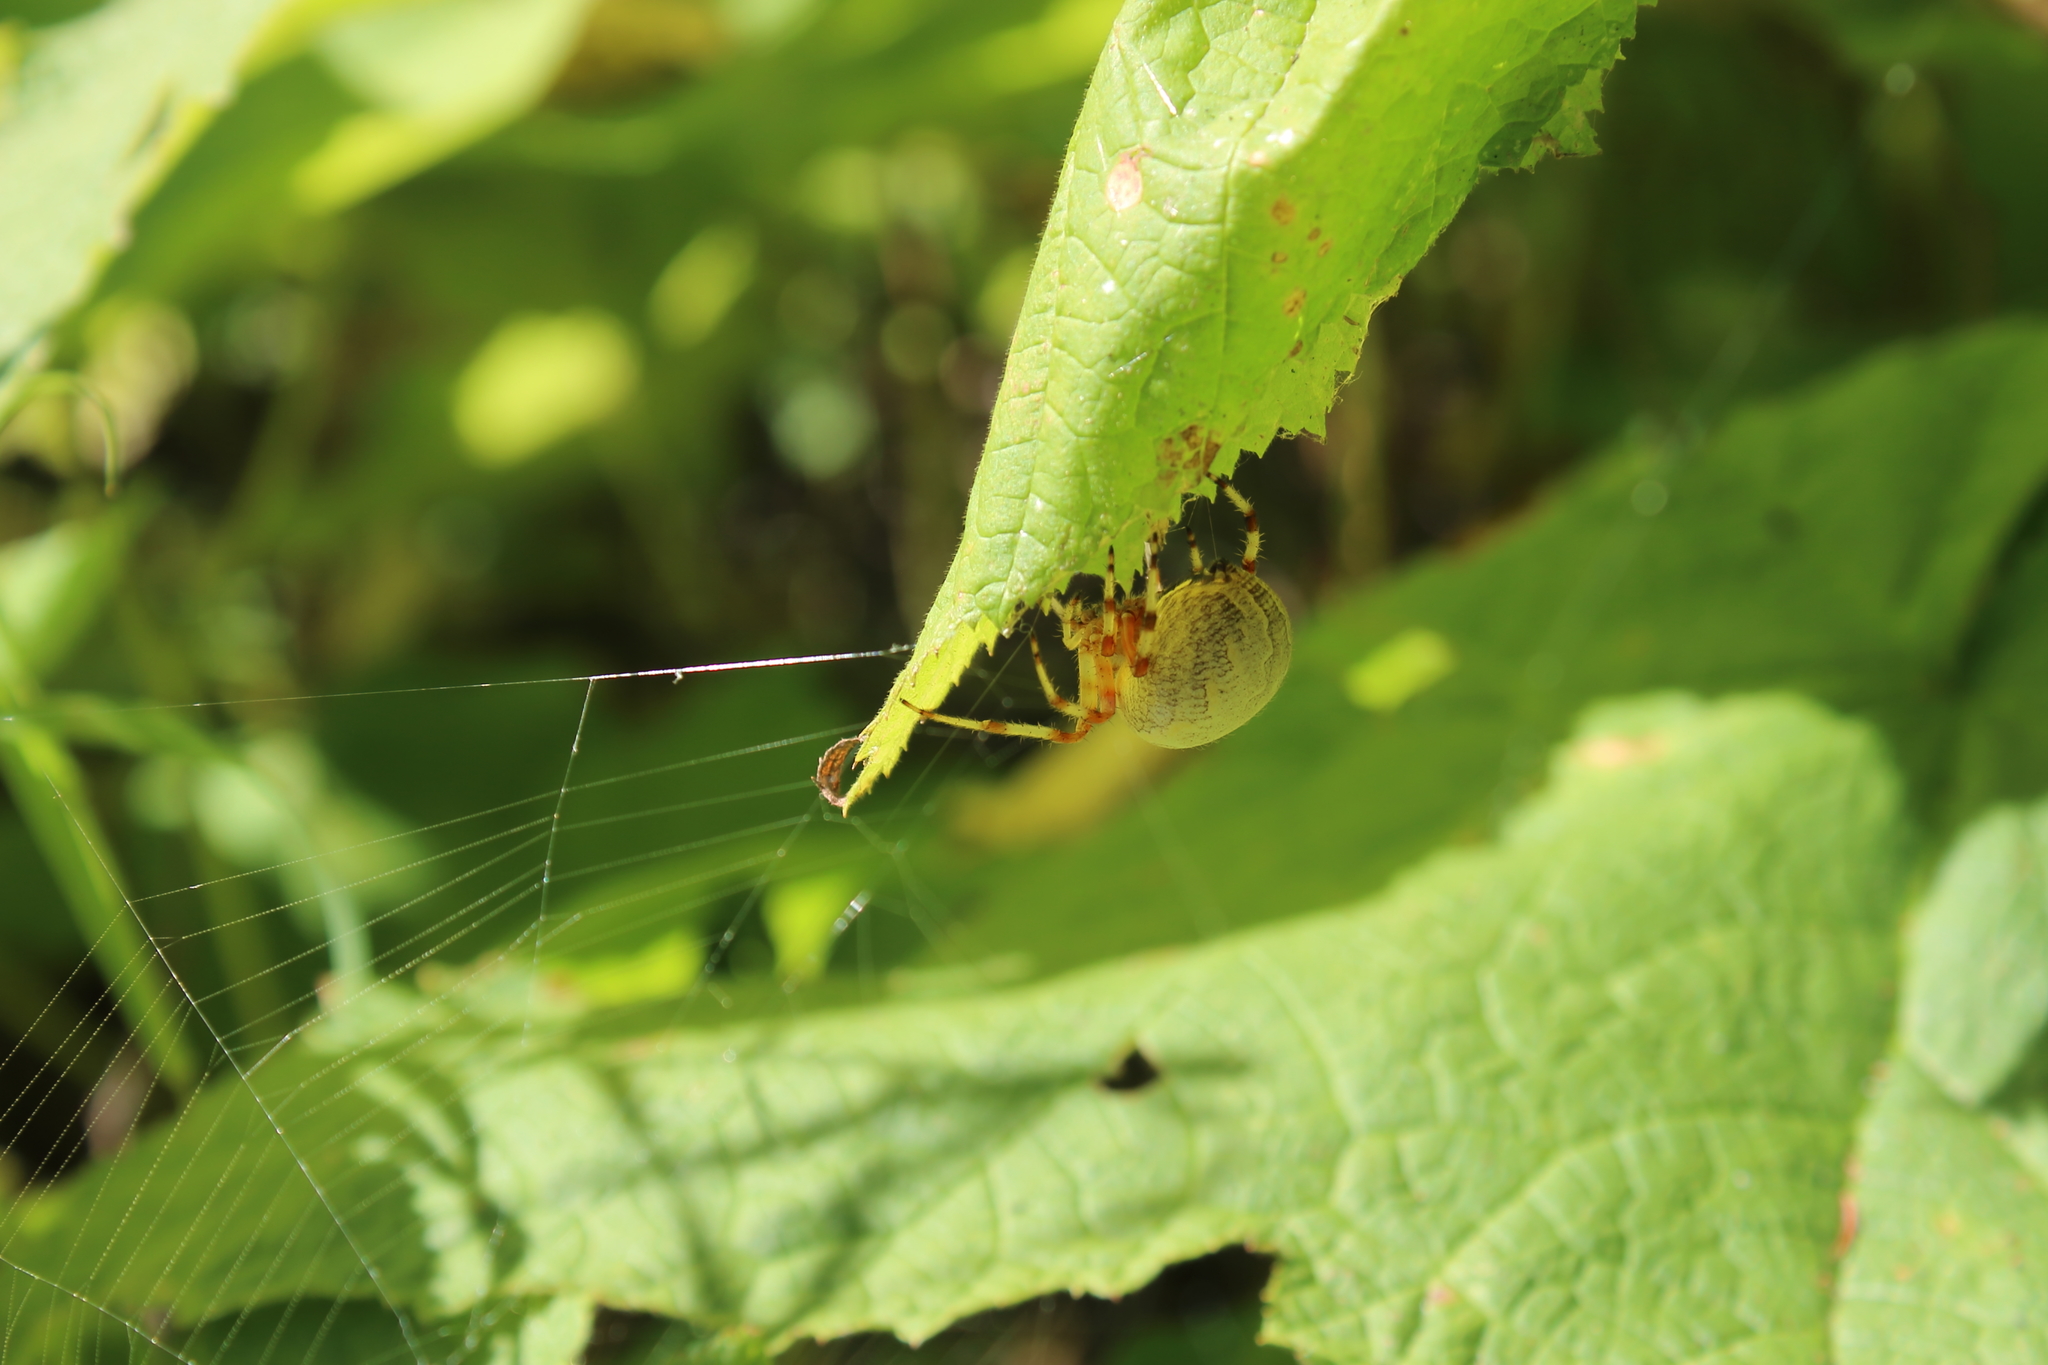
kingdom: Animalia
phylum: Arthropoda
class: Arachnida
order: Araneae
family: Araneidae
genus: Araneus
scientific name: Araneus marmoreus
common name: Marbled orbweaver
